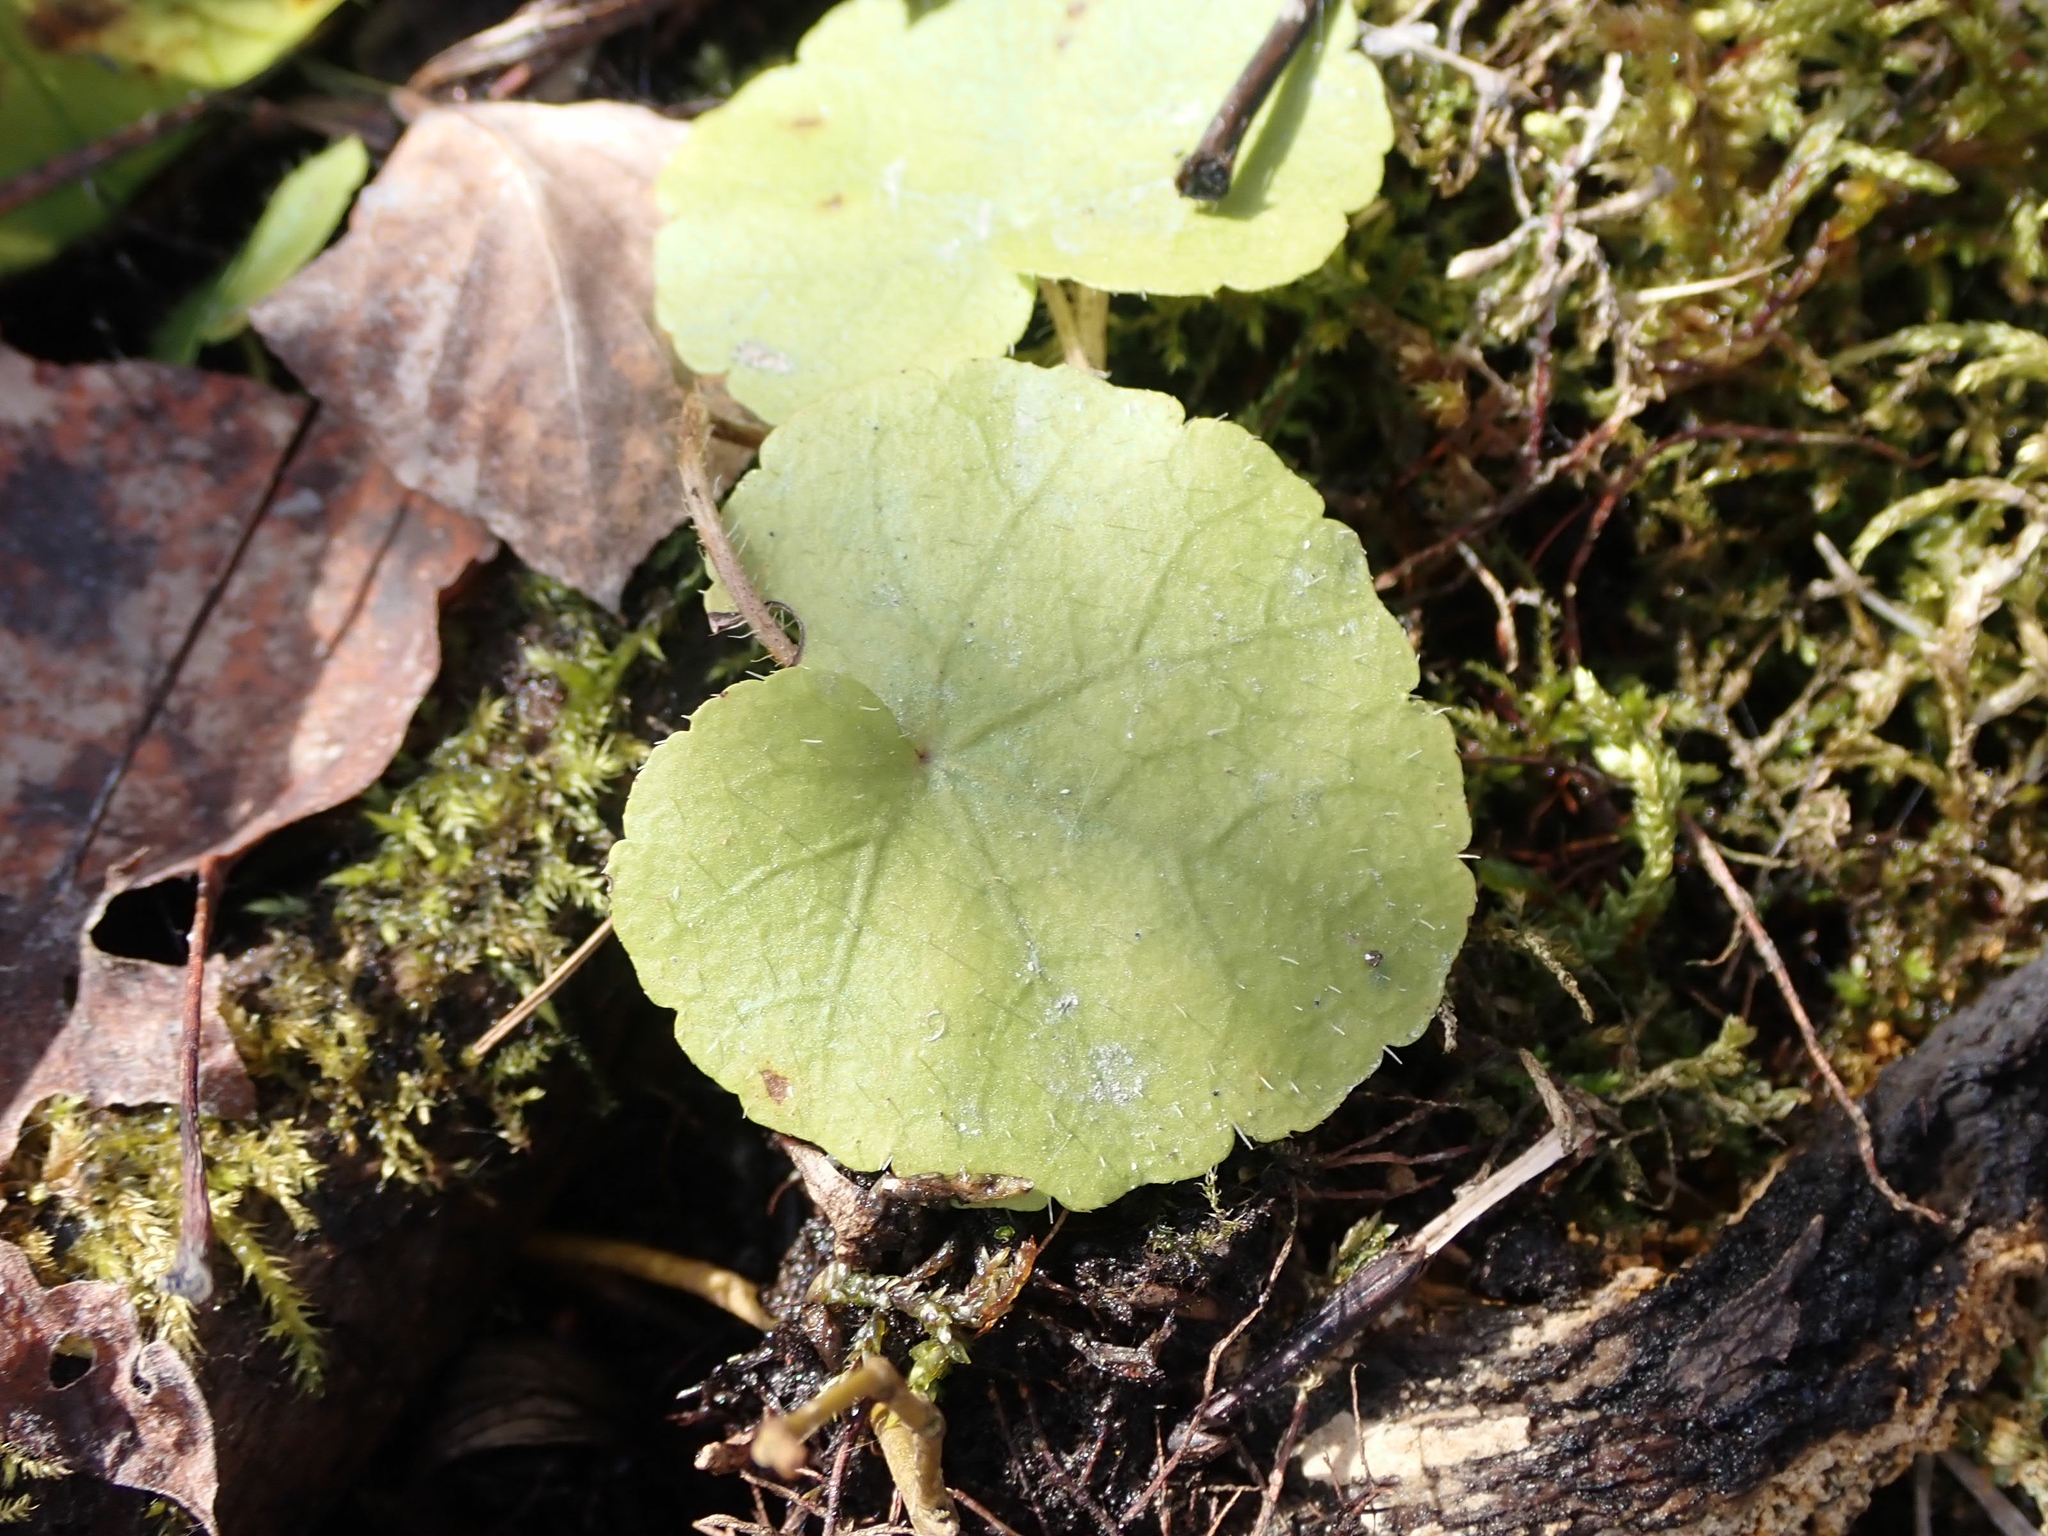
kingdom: Plantae
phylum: Tracheophyta
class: Magnoliopsida
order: Saxifragales
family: Saxifragaceae
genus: Mitella
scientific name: Mitella nuda
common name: Bare-stemmed bishop's-cap
